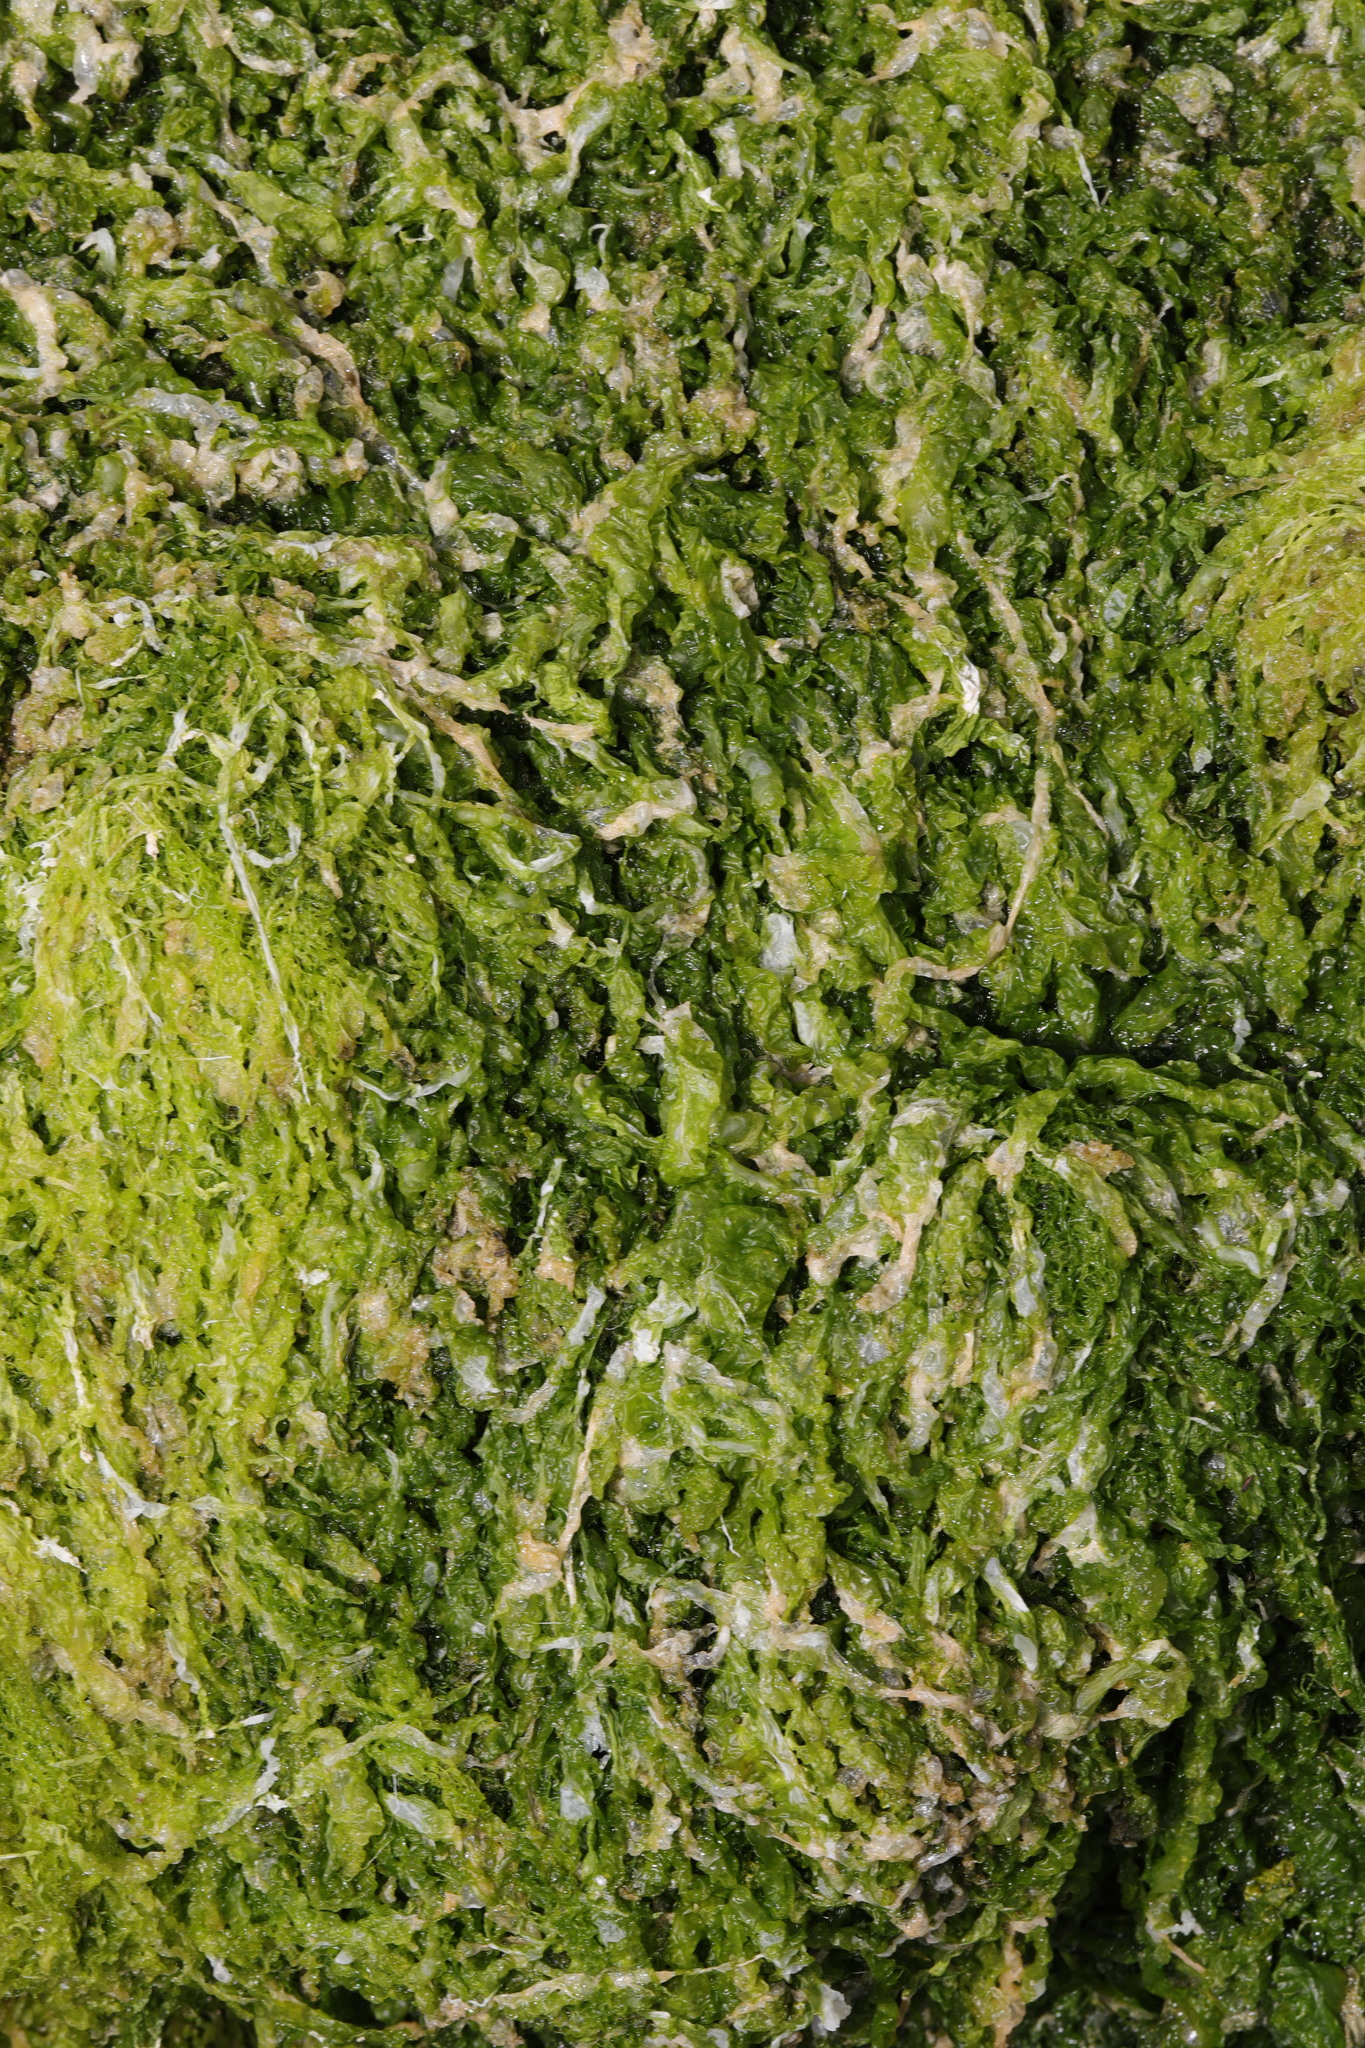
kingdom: Plantae
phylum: Chlorophyta
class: Ulvophyceae
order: Ulvales
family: Ulvaceae
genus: Ulva
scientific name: Ulva intestinalis
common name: Gut weed
